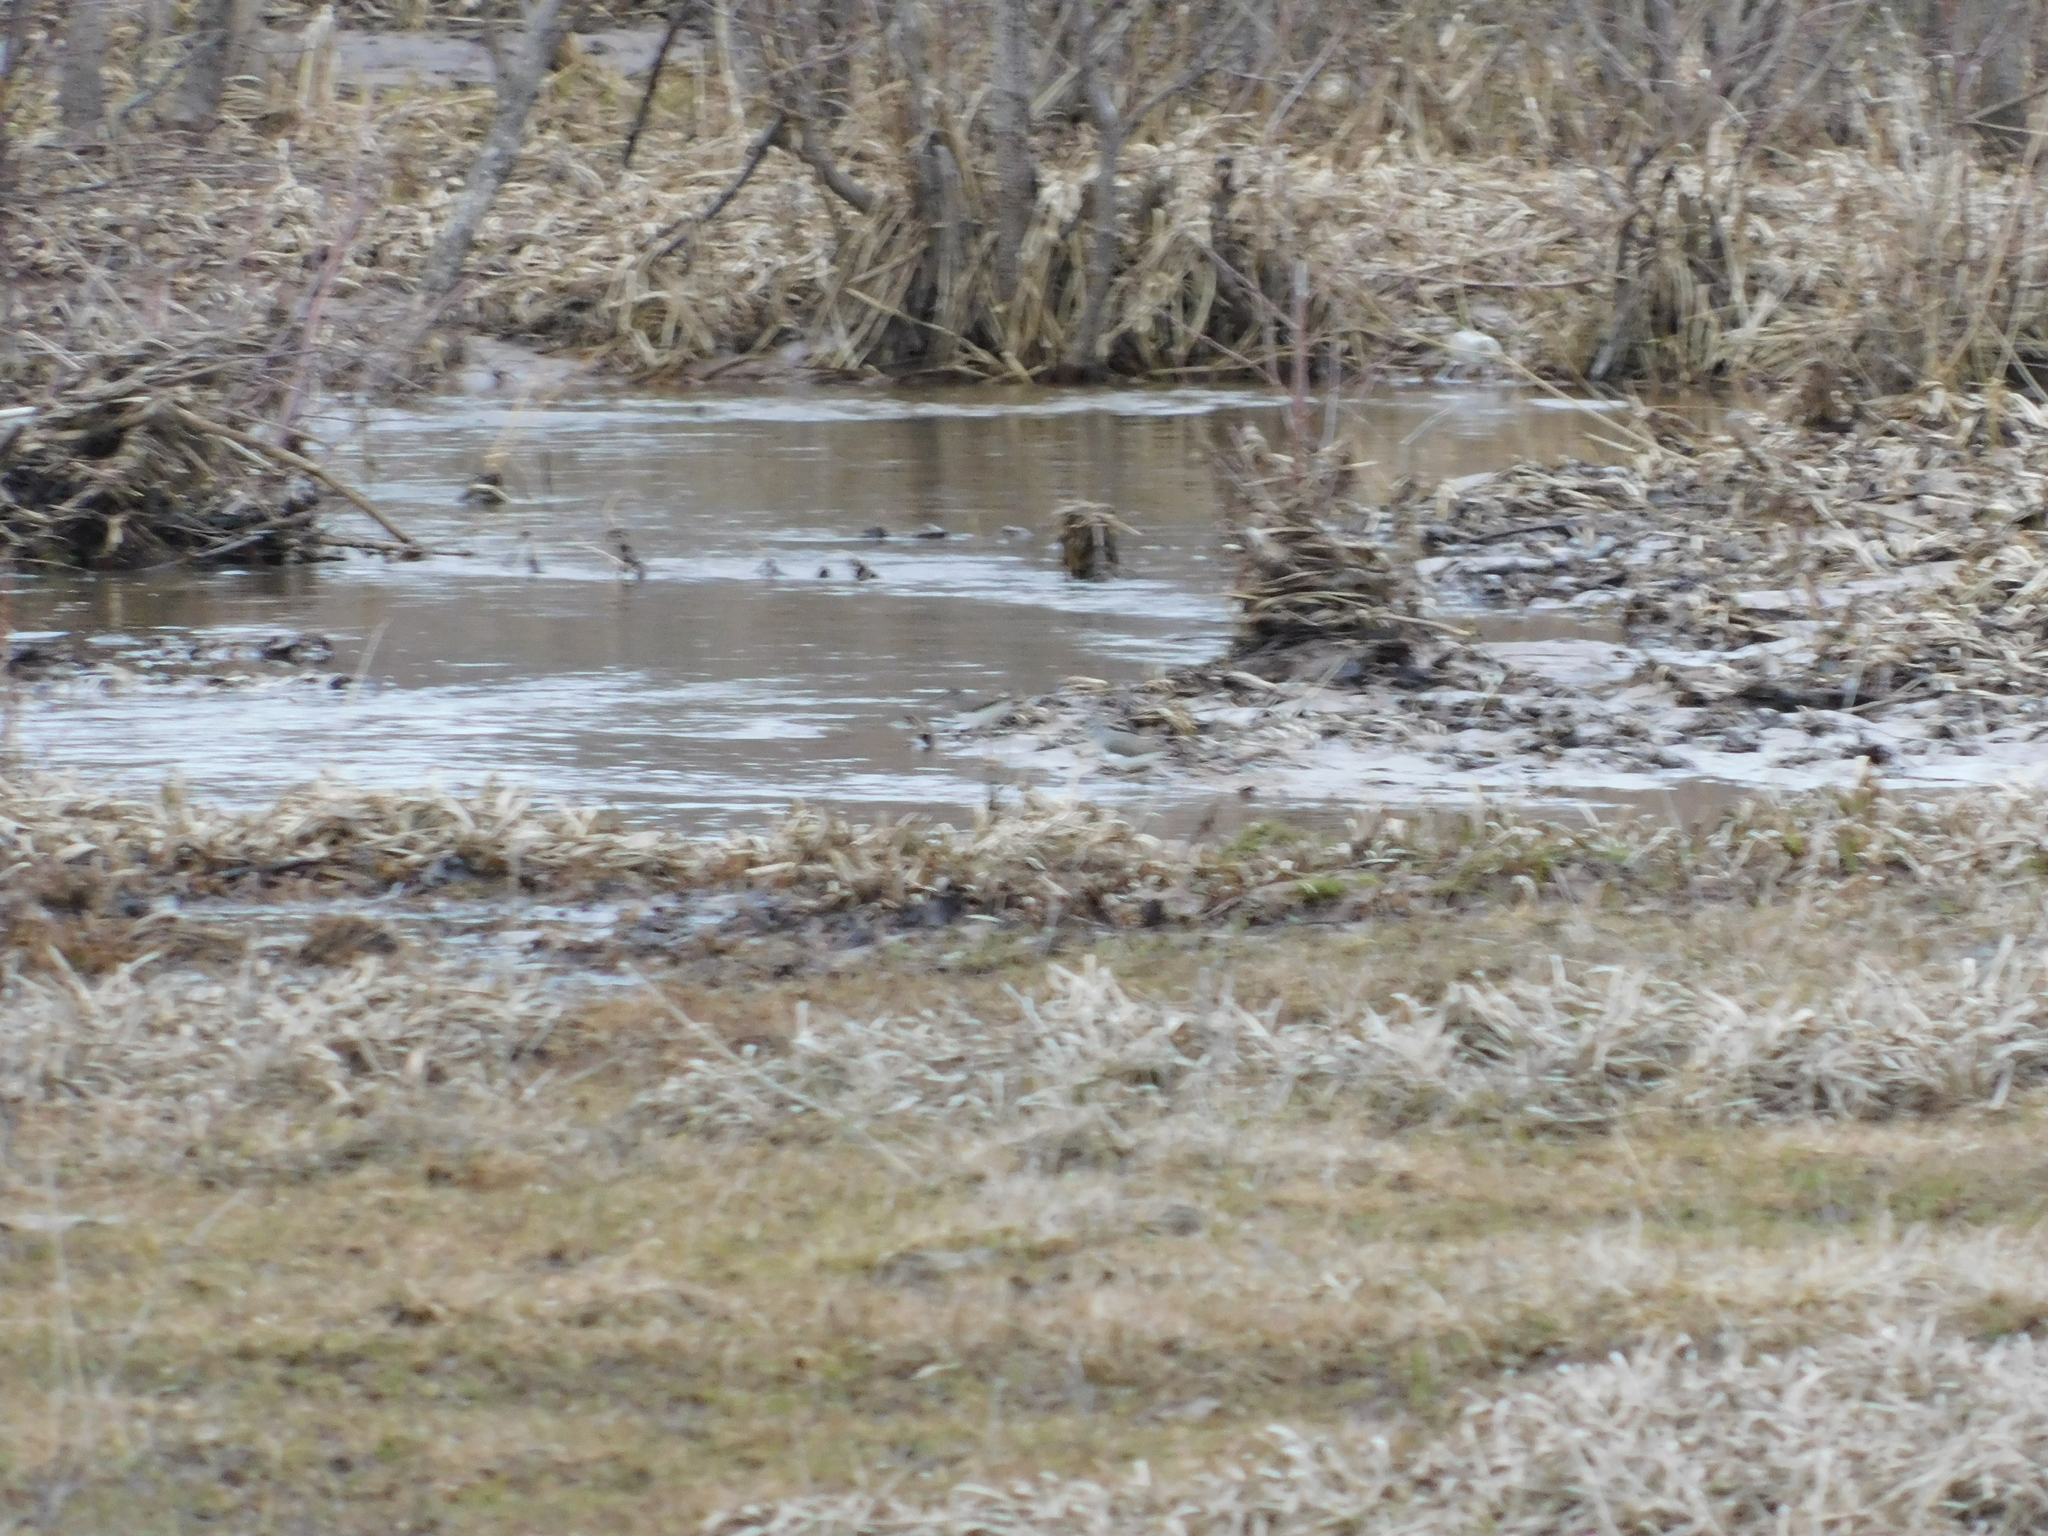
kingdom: Animalia
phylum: Chordata
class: Aves
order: Charadriiformes
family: Scolopacidae
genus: Tringa
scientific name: Tringa ochropus
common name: Green sandpiper
